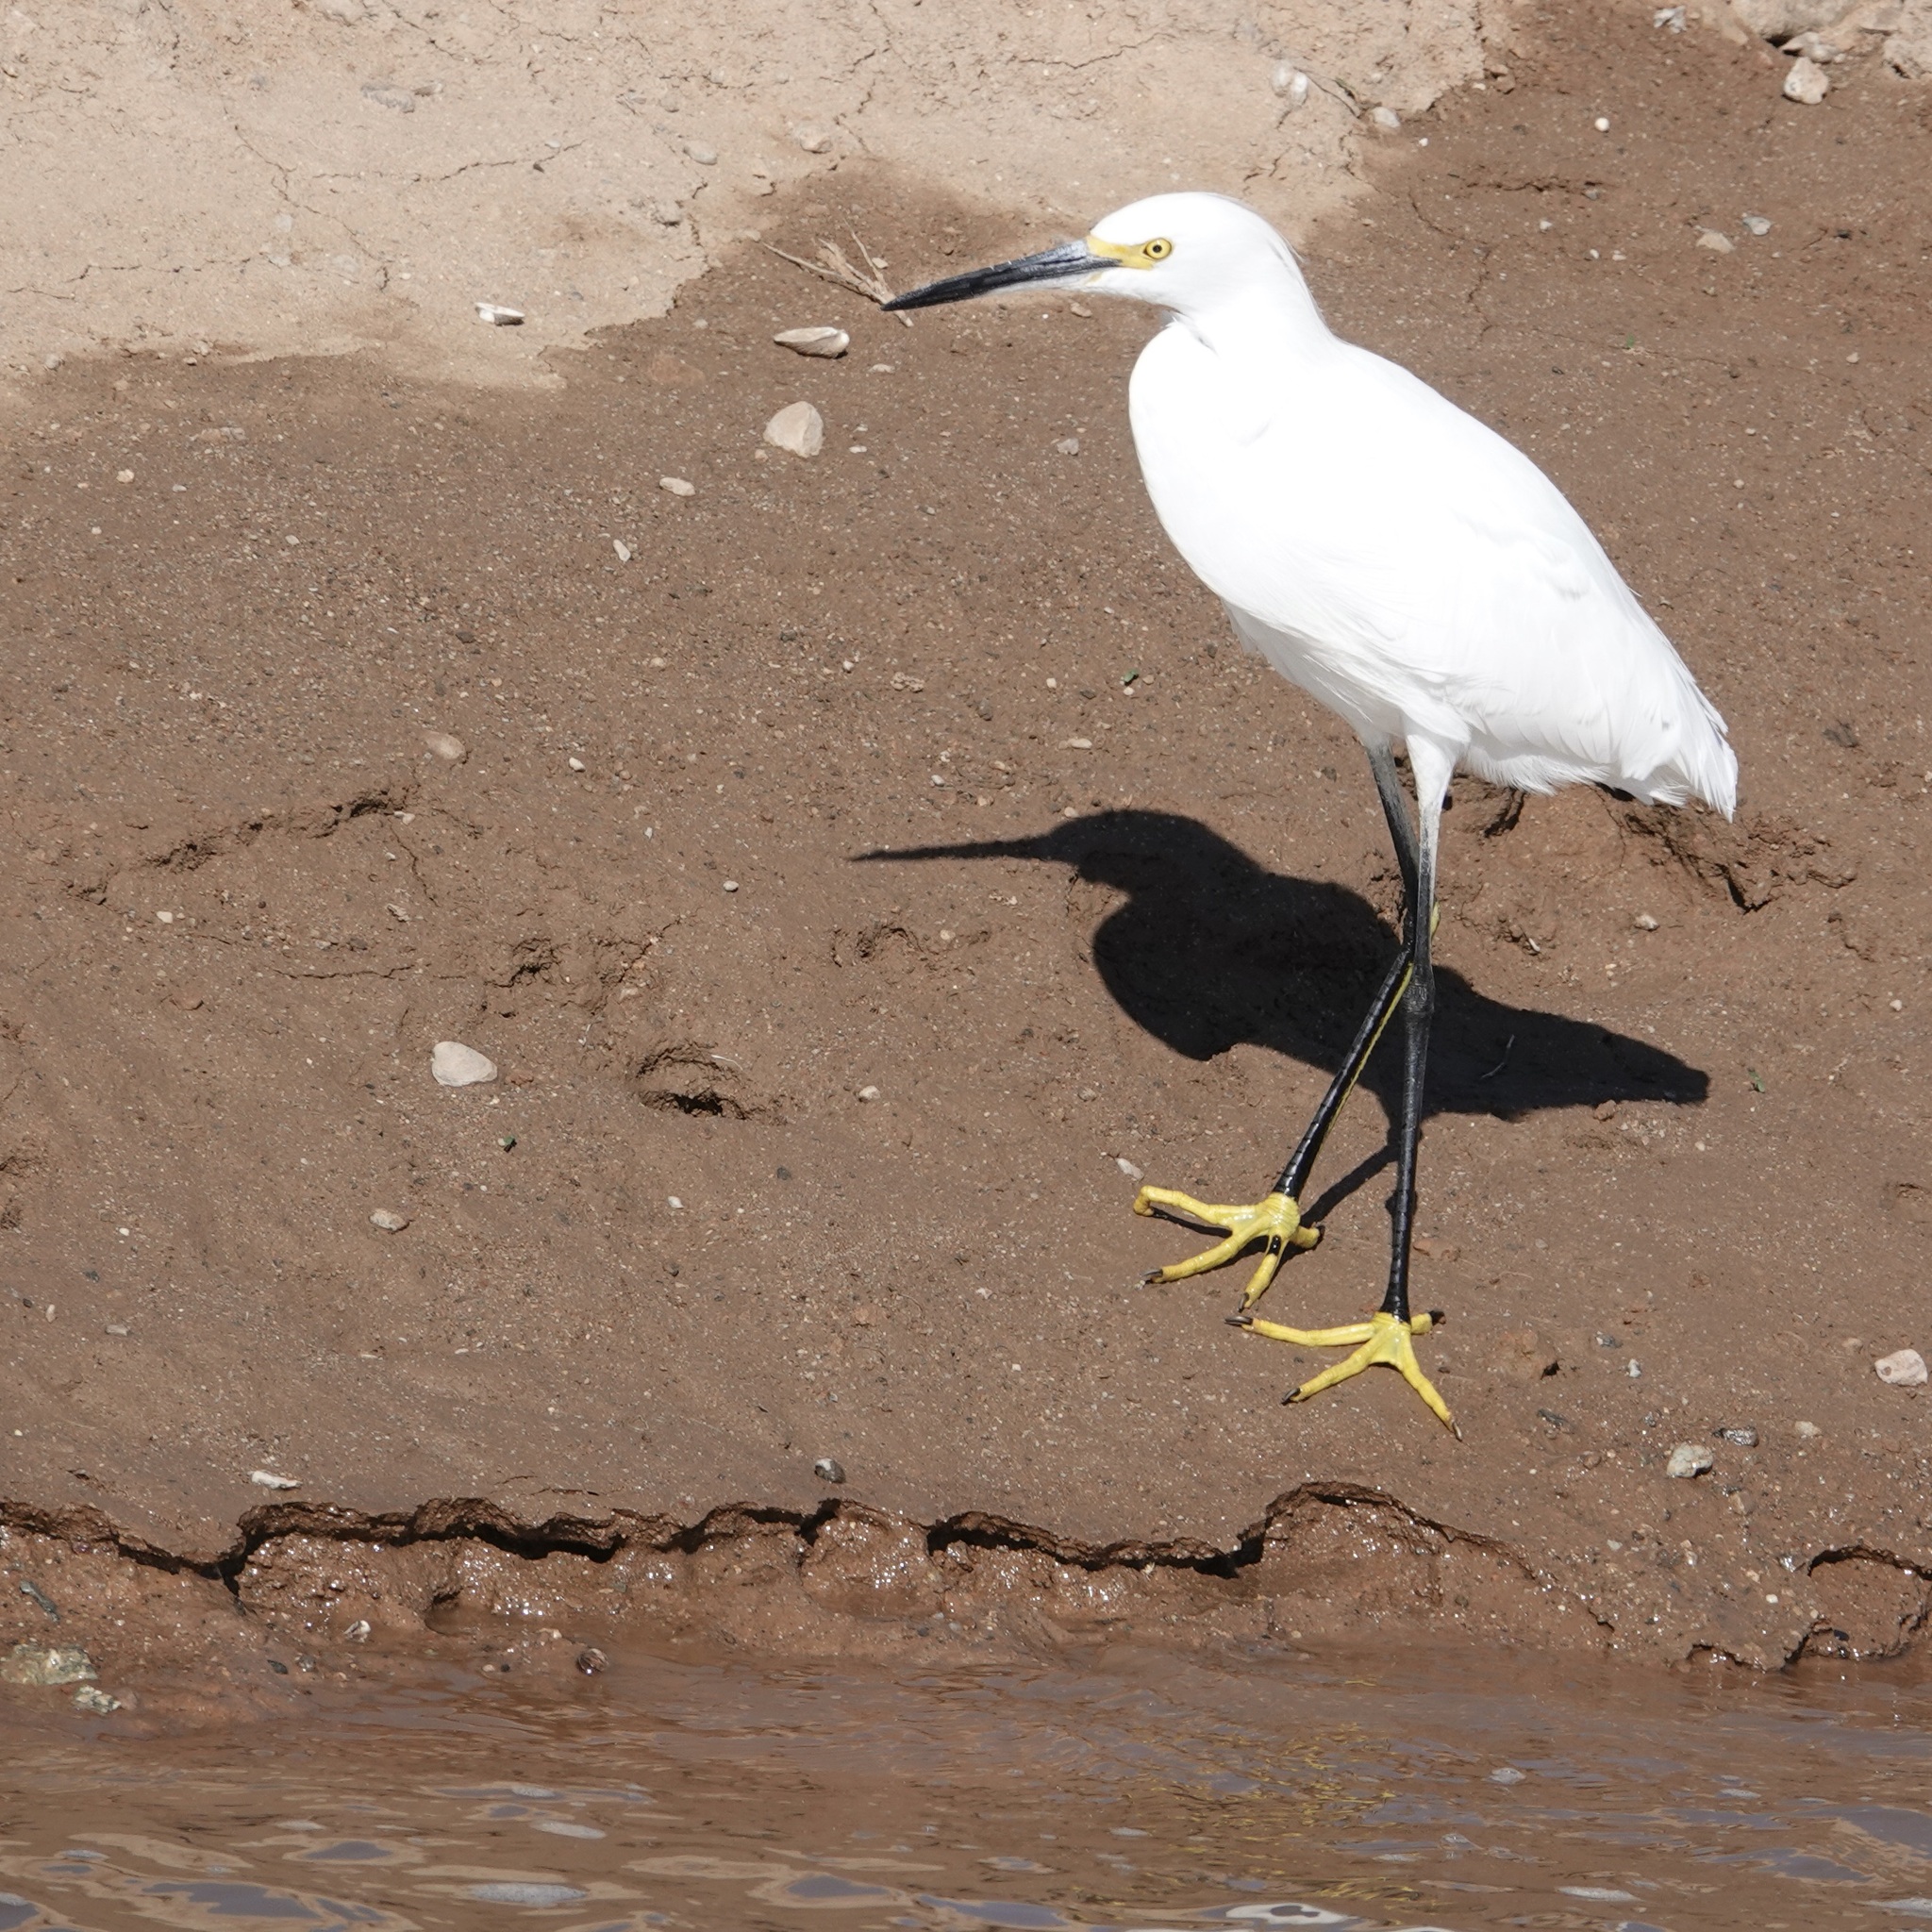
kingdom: Animalia
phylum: Chordata
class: Aves
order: Pelecaniformes
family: Ardeidae
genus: Egretta
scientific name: Egretta thula
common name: Snowy egret
